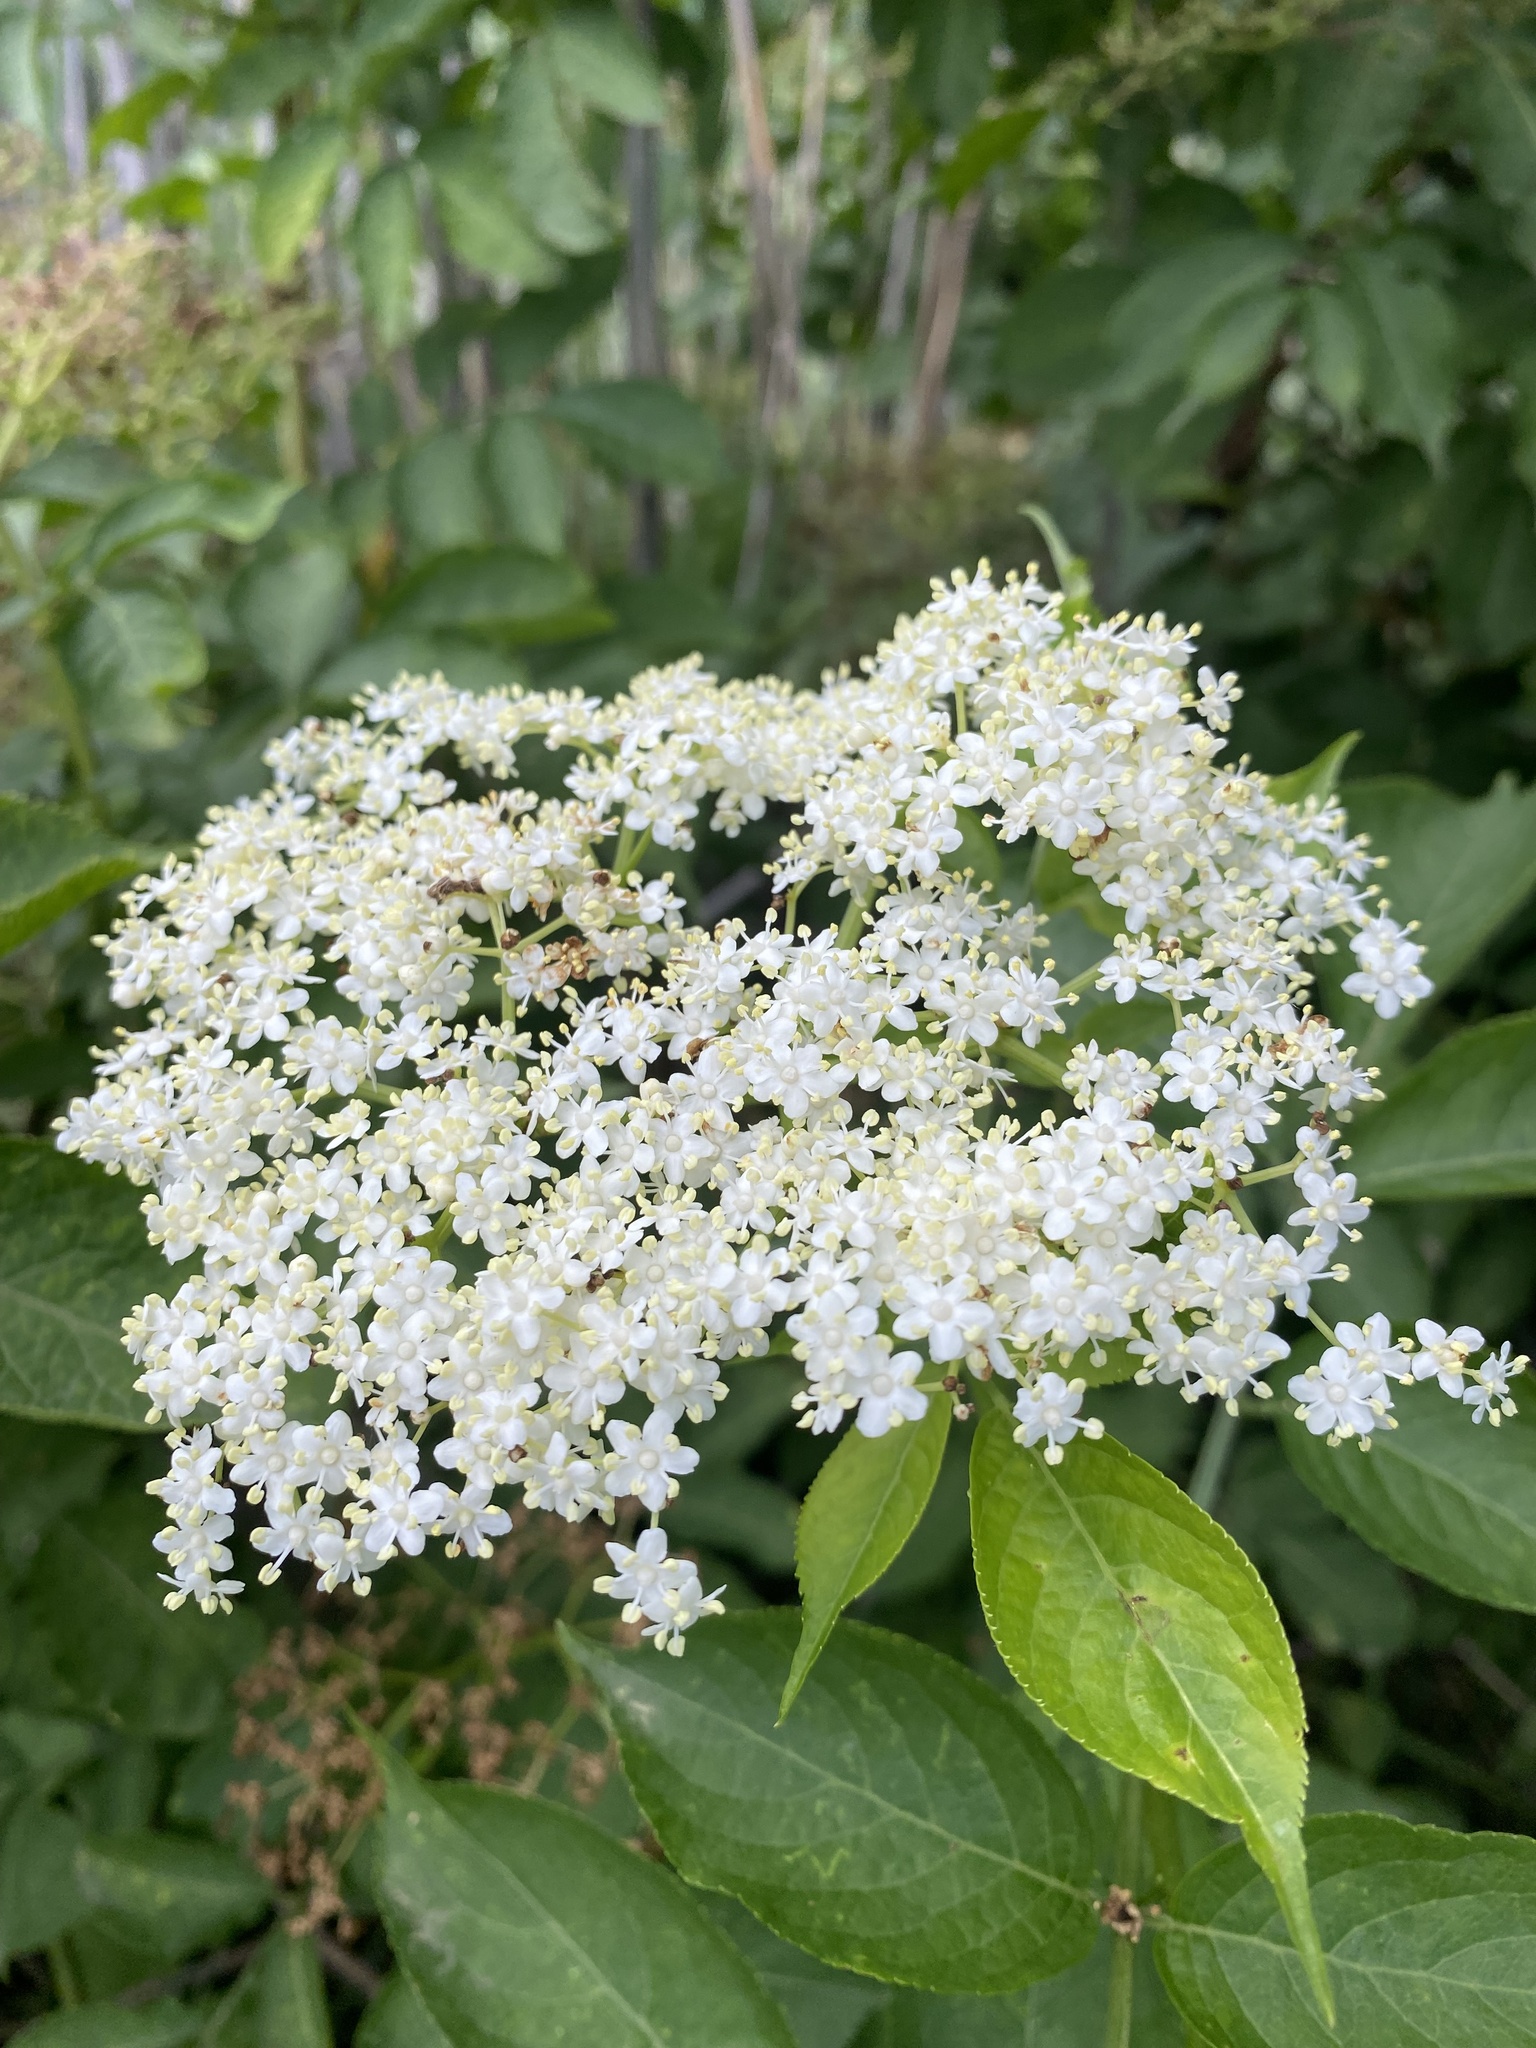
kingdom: Plantae
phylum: Tracheophyta
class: Magnoliopsida
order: Dipsacales
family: Viburnaceae
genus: Sambucus
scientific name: Sambucus nigra
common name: Elder
